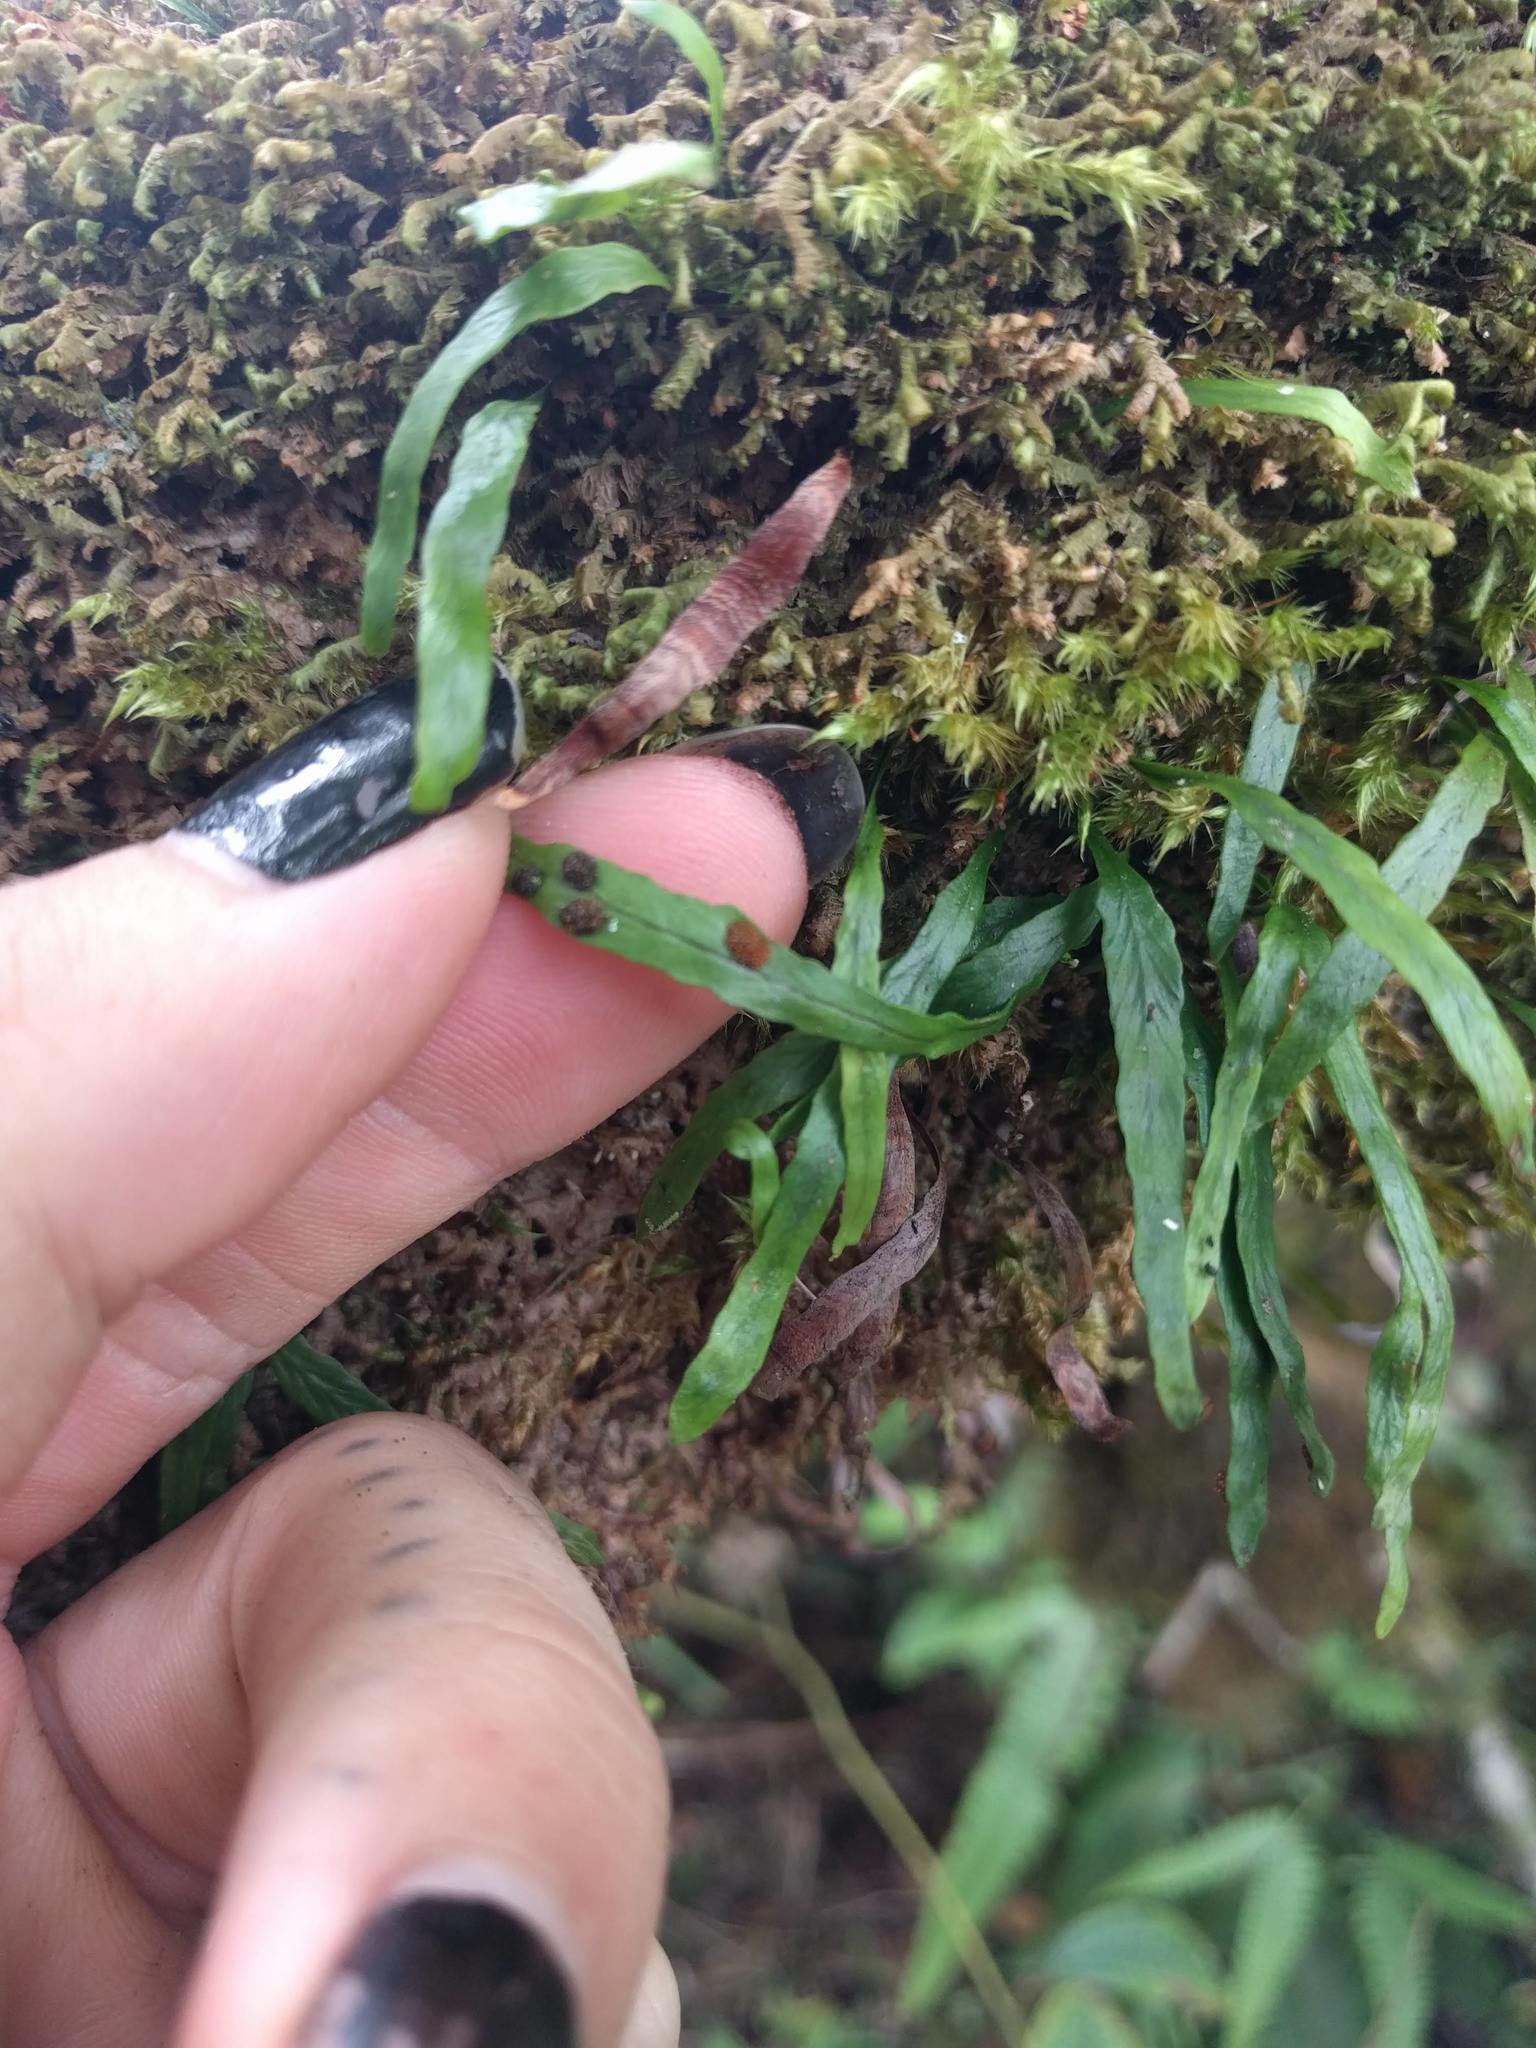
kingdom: Plantae
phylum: Tracheophyta
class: Polypodiopsida
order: Polypodiales
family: Polypodiaceae
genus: Adenophorus
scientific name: Adenophorus tenellus
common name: Kolokolo
